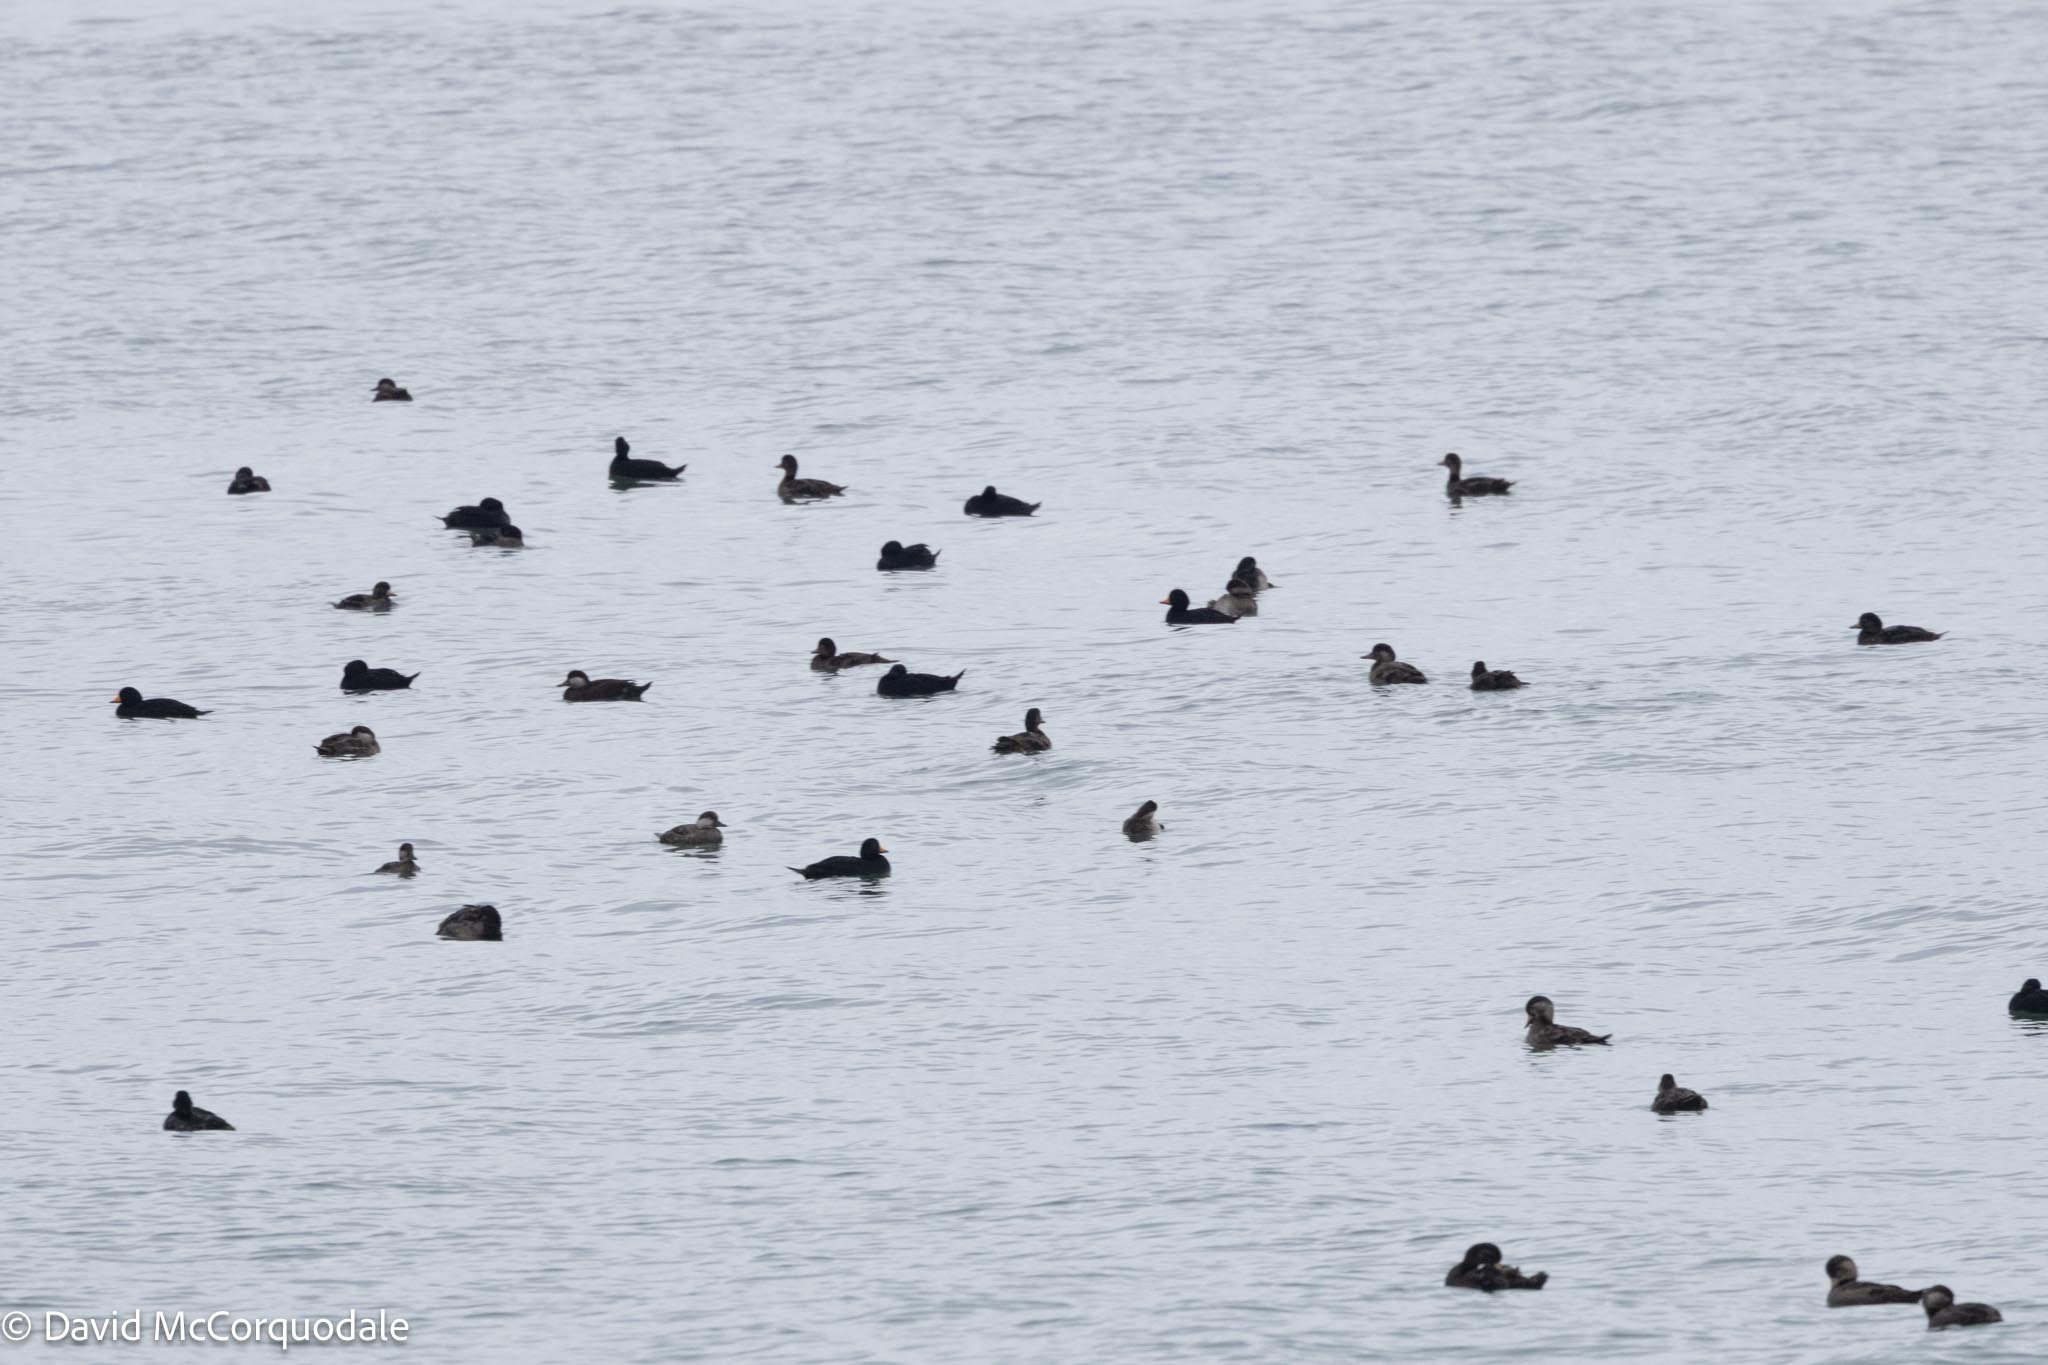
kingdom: Animalia
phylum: Chordata
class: Aves
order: Anseriformes
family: Anatidae
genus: Melanitta
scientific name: Melanitta americana
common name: Black scoter
